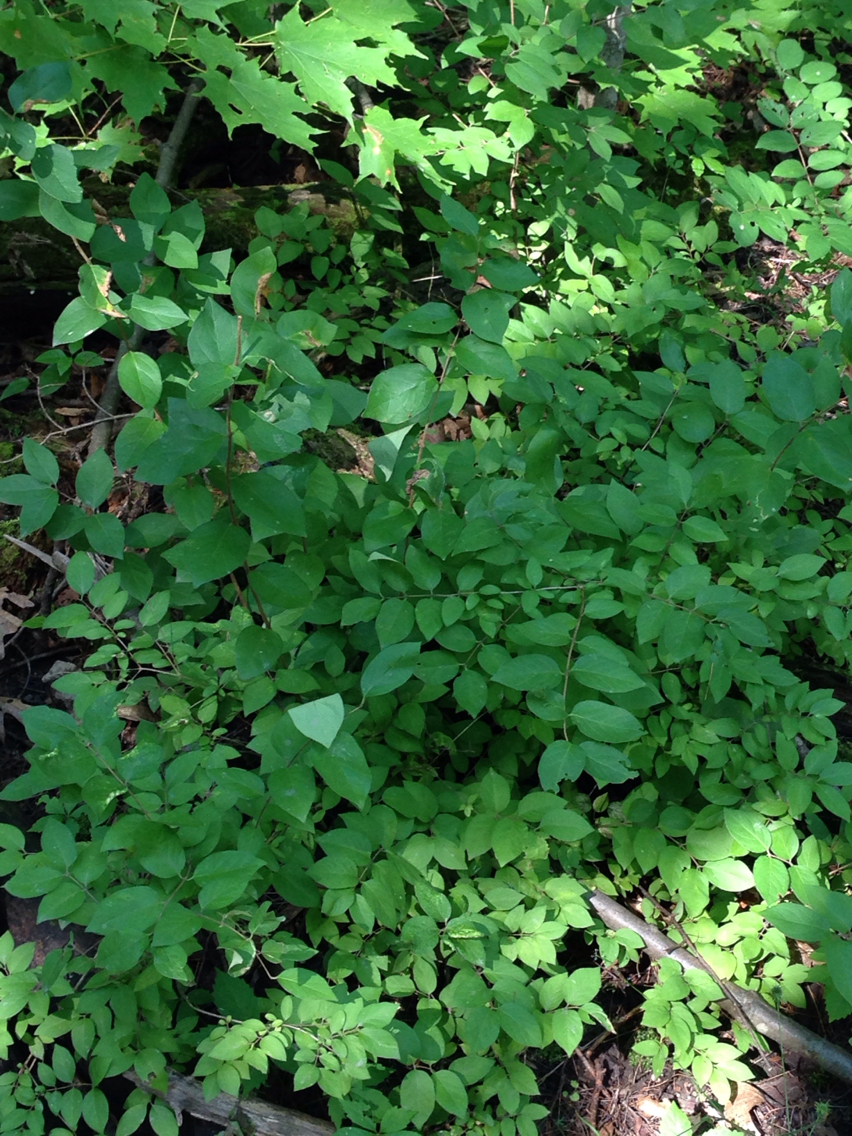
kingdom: Plantae
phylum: Tracheophyta
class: Magnoliopsida
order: Dipsacales
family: Caprifoliaceae
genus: Lonicera
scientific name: Lonicera morrowii
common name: Morrow's honeysuckle
